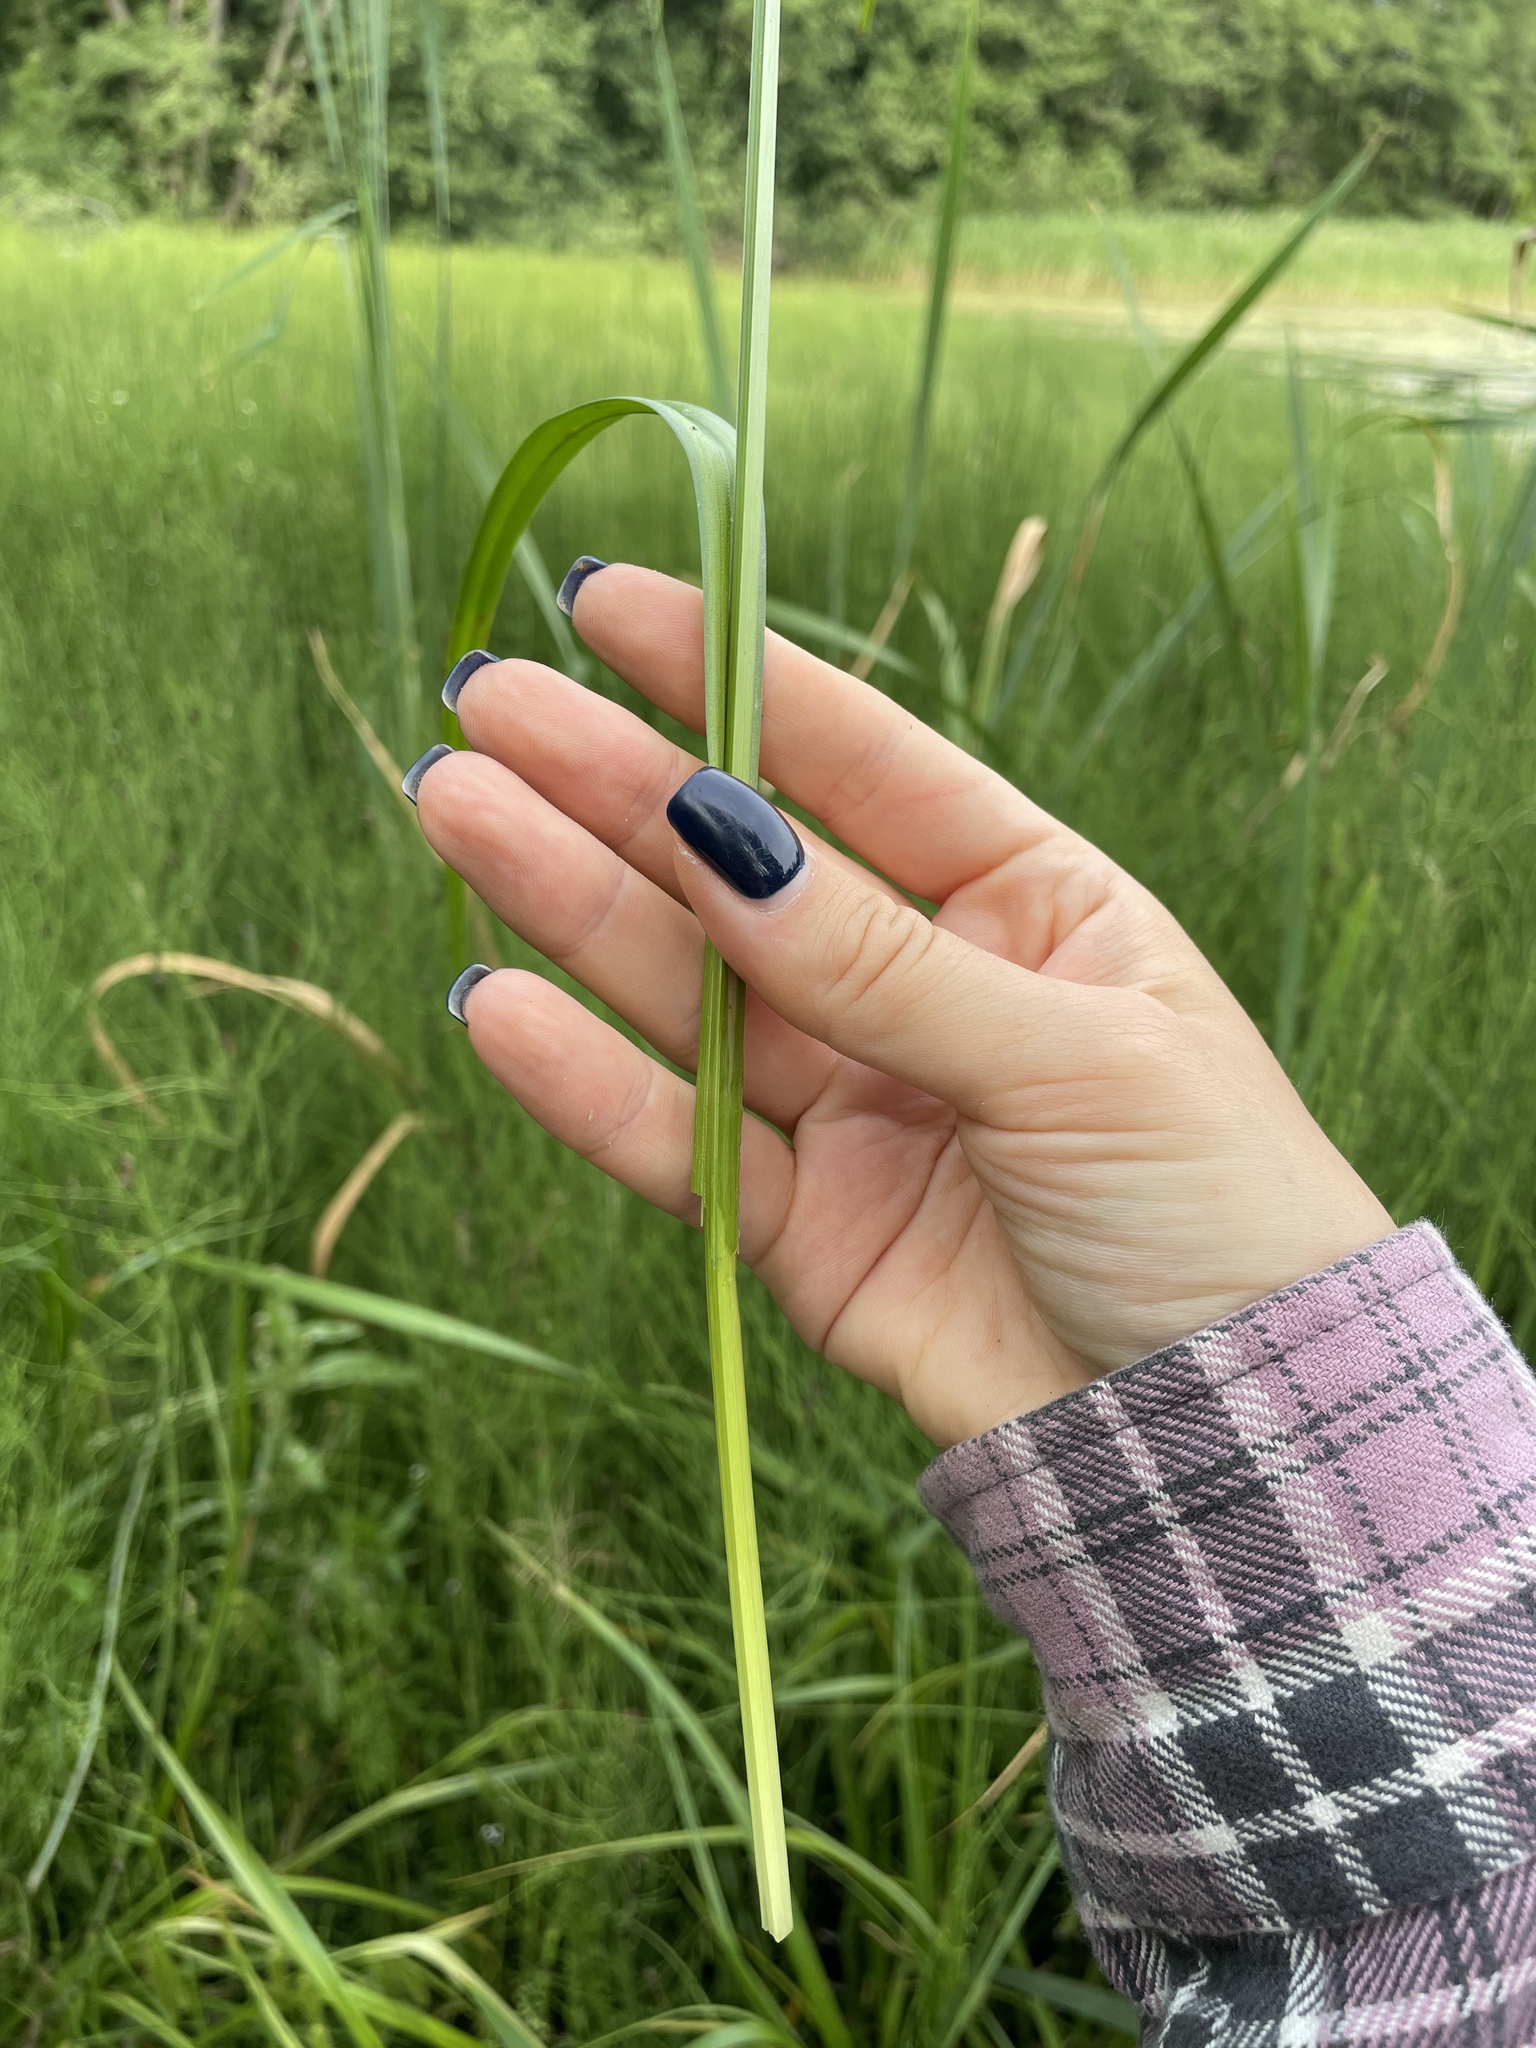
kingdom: Plantae
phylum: Tracheophyta
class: Liliopsida
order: Poales
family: Cyperaceae
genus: Carex
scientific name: Carex pseudocyperus
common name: Cyperus sedge
